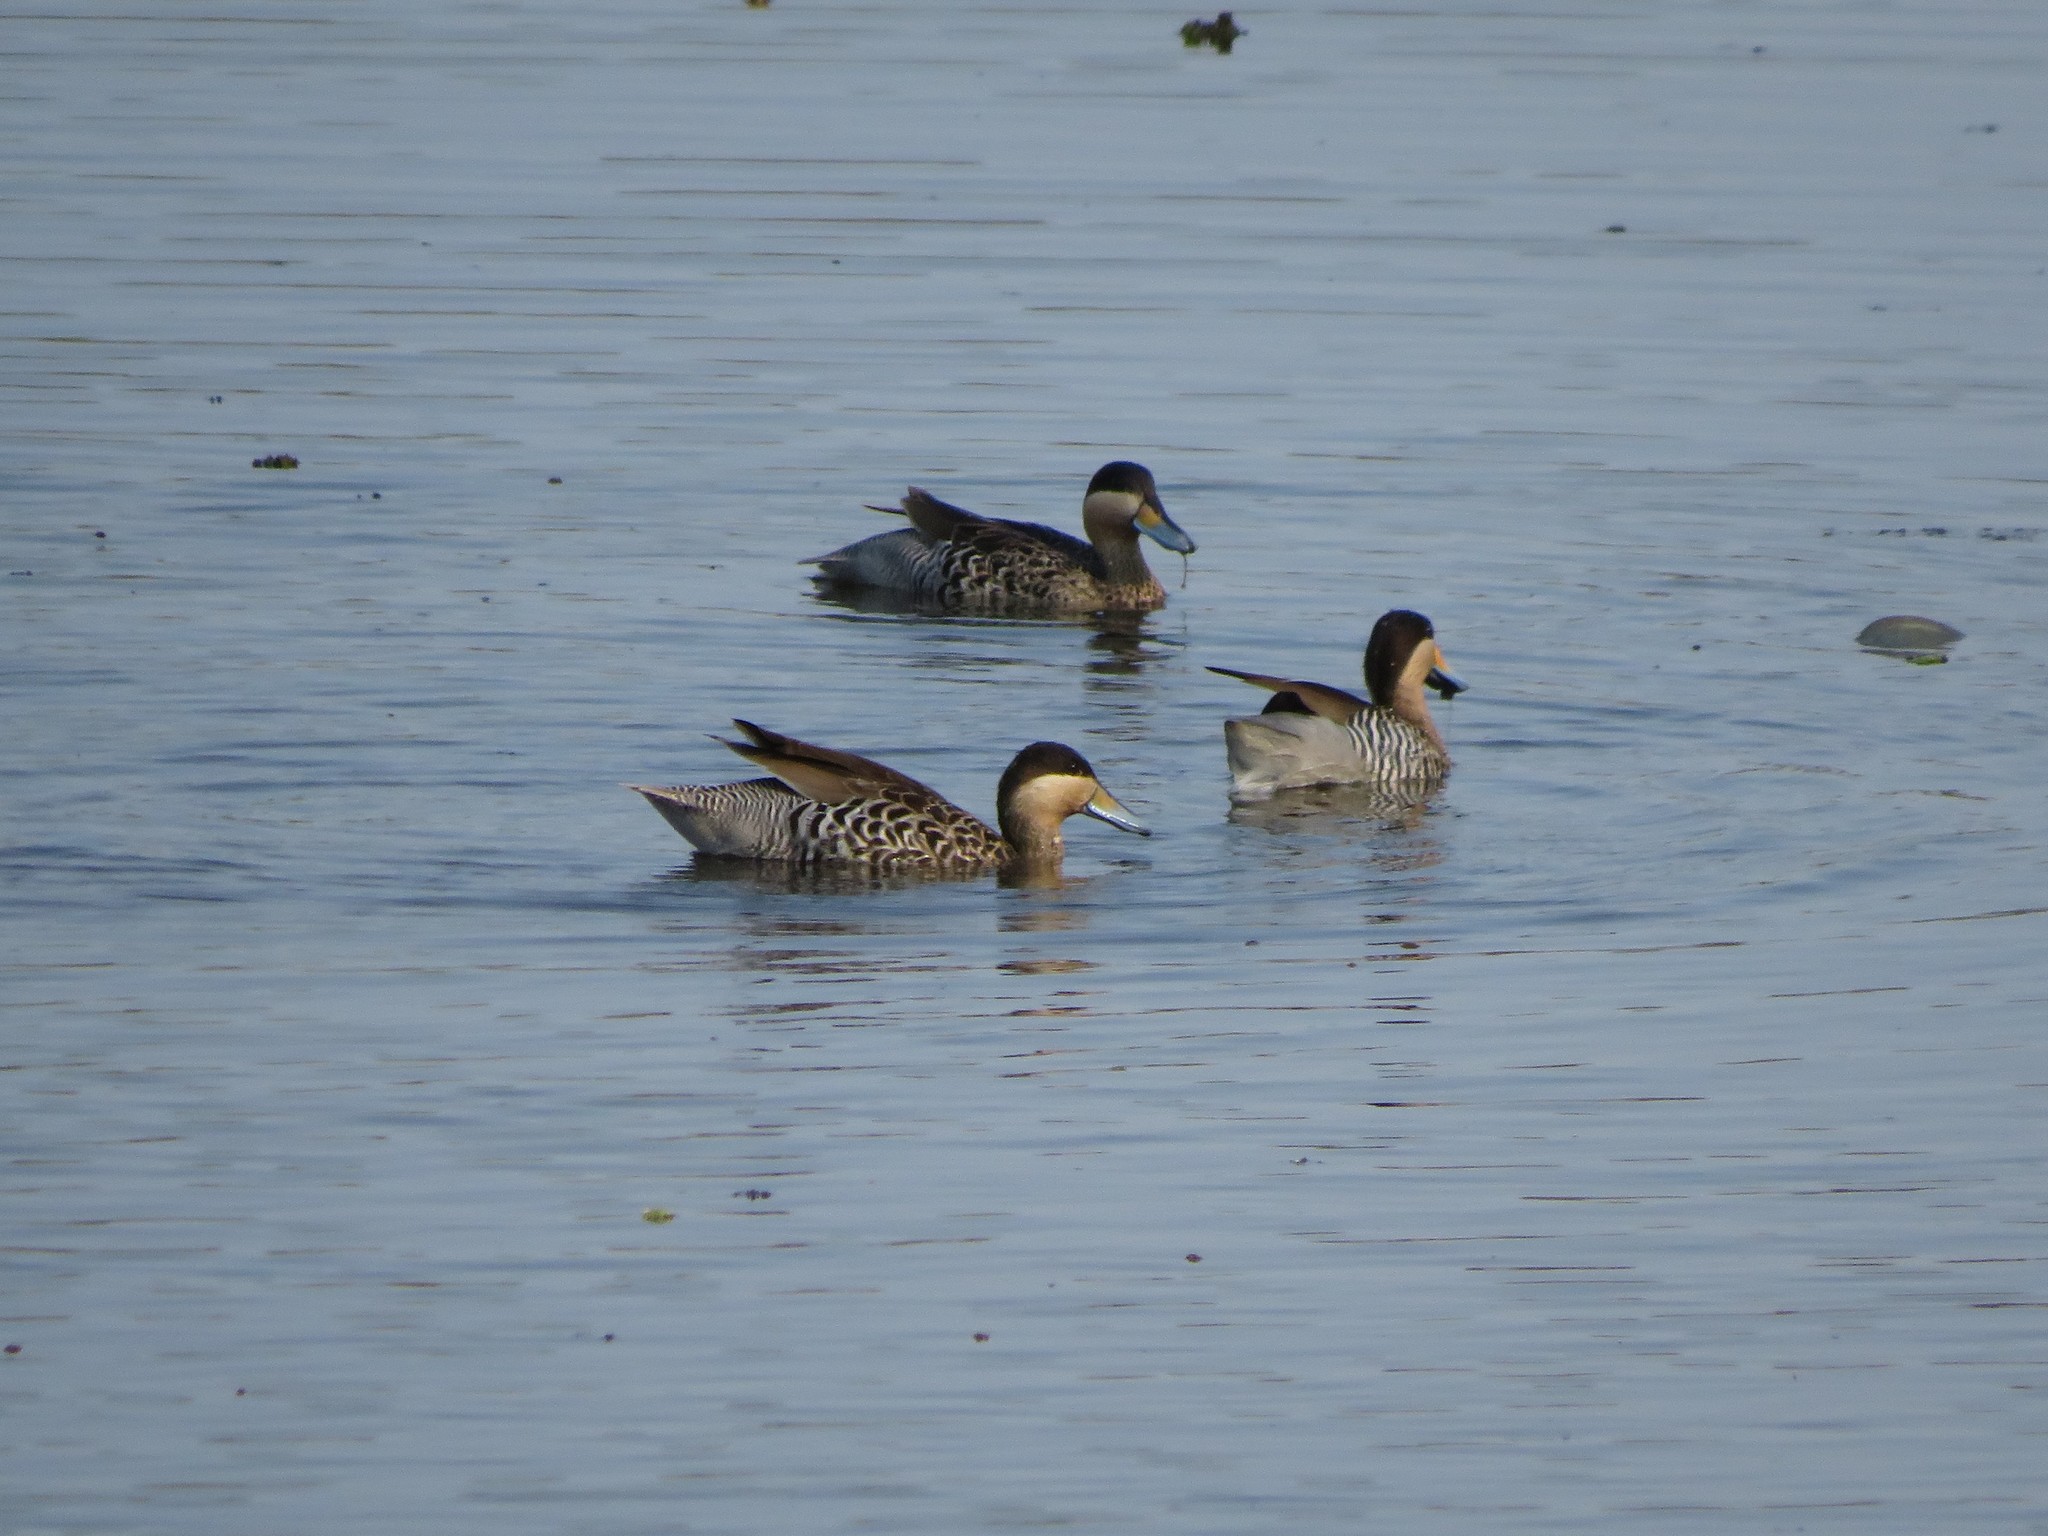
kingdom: Animalia
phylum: Chordata
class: Aves
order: Anseriformes
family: Anatidae
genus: Spatula
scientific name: Spatula versicolor
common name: Silver teal
